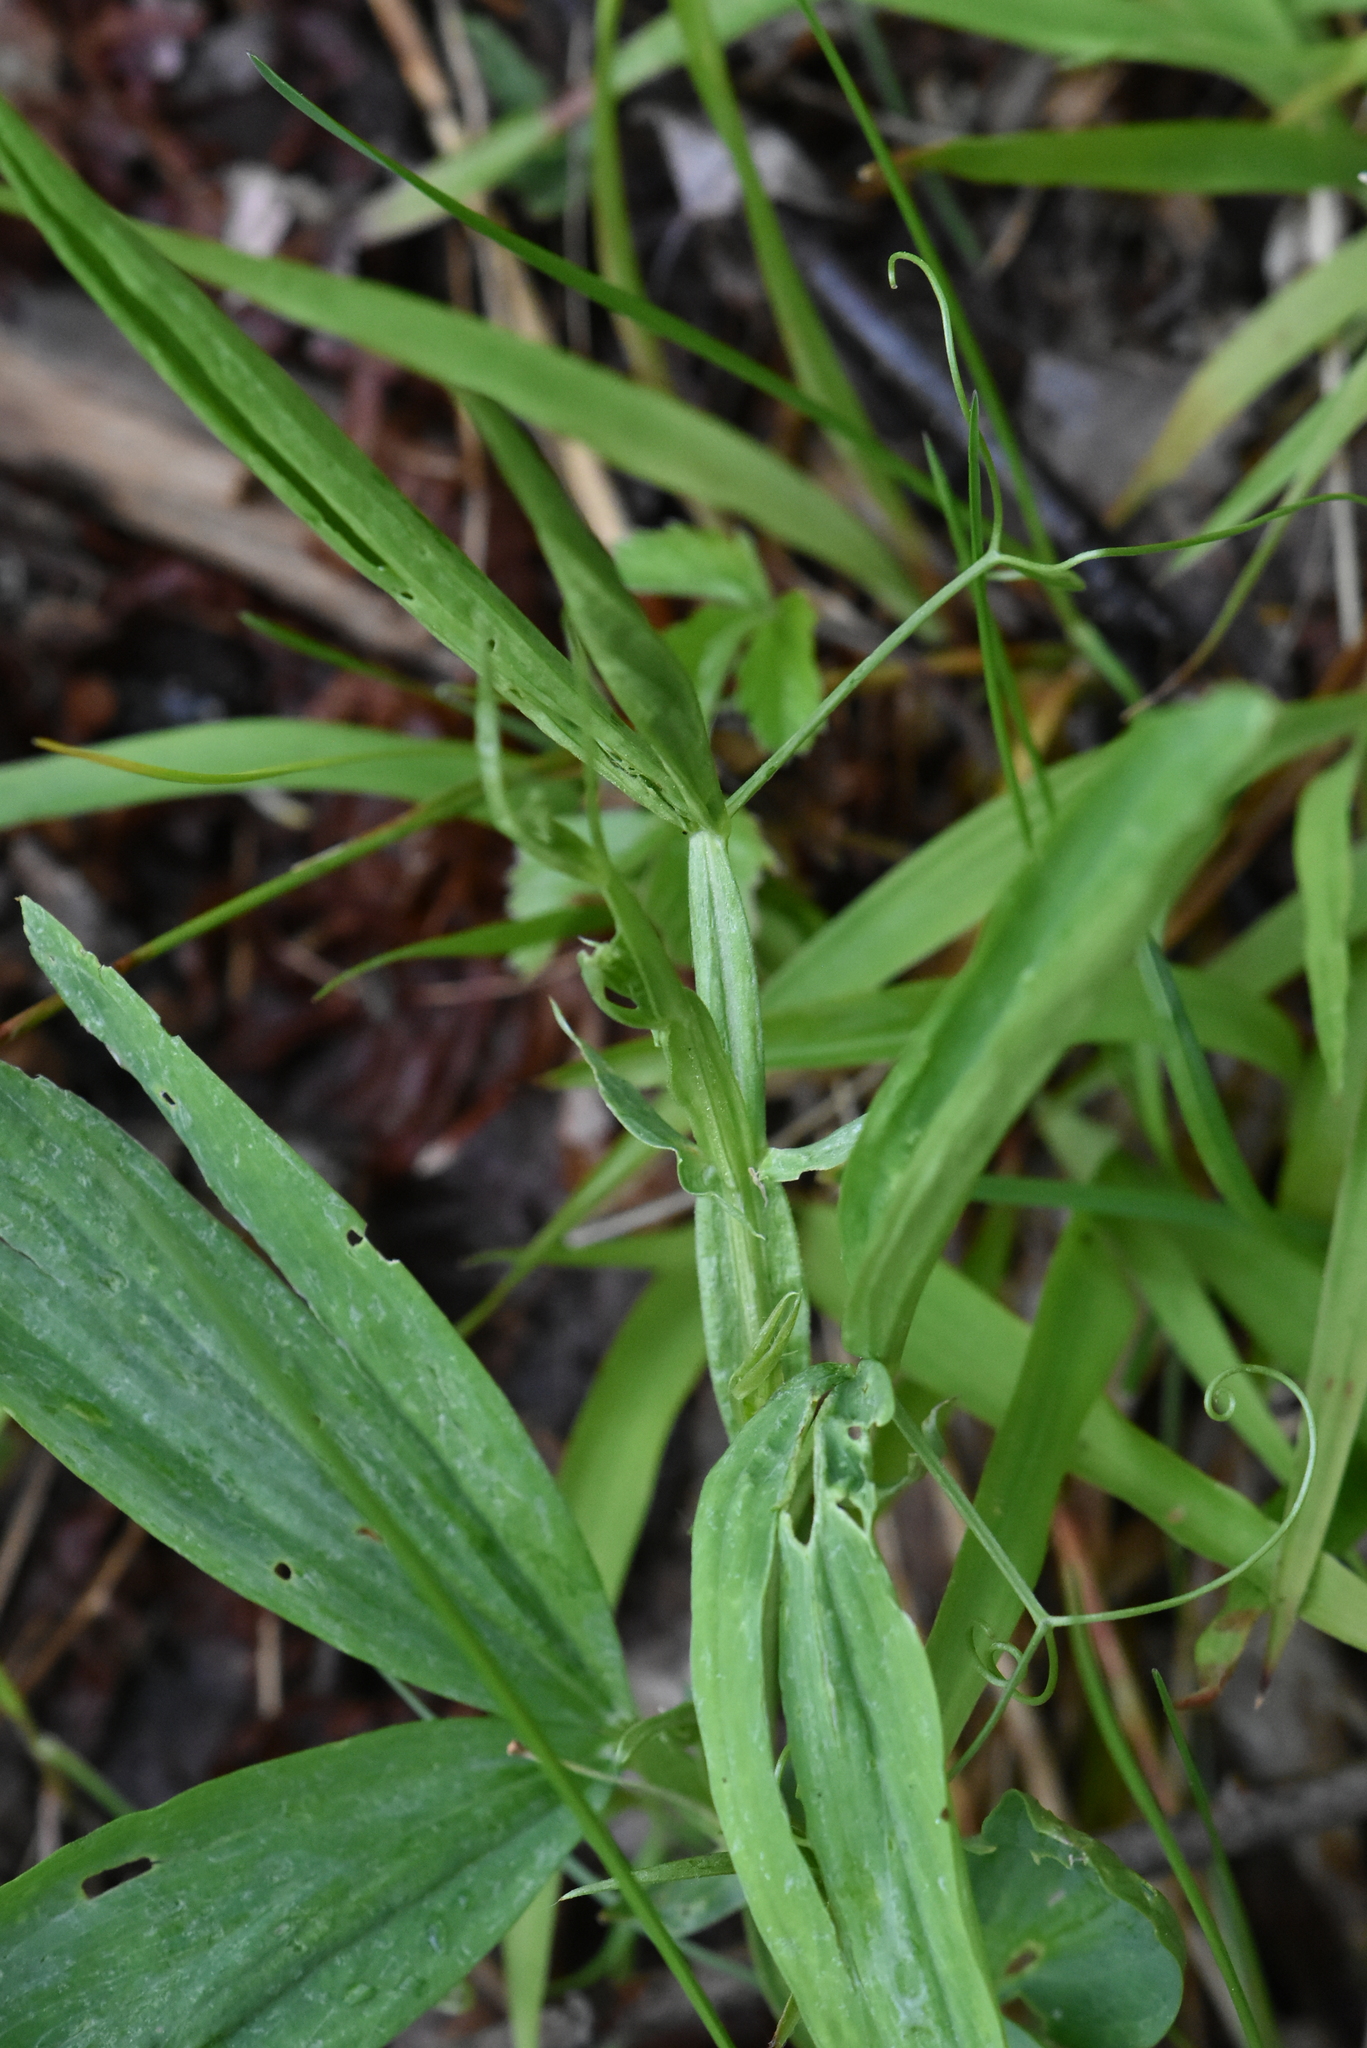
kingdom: Plantae
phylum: Tracheophyta
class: Magnoliopsida
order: Fabales
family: Fabaceae
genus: Lathyrus
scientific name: Lathyrus sylvestris
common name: Flat pea
